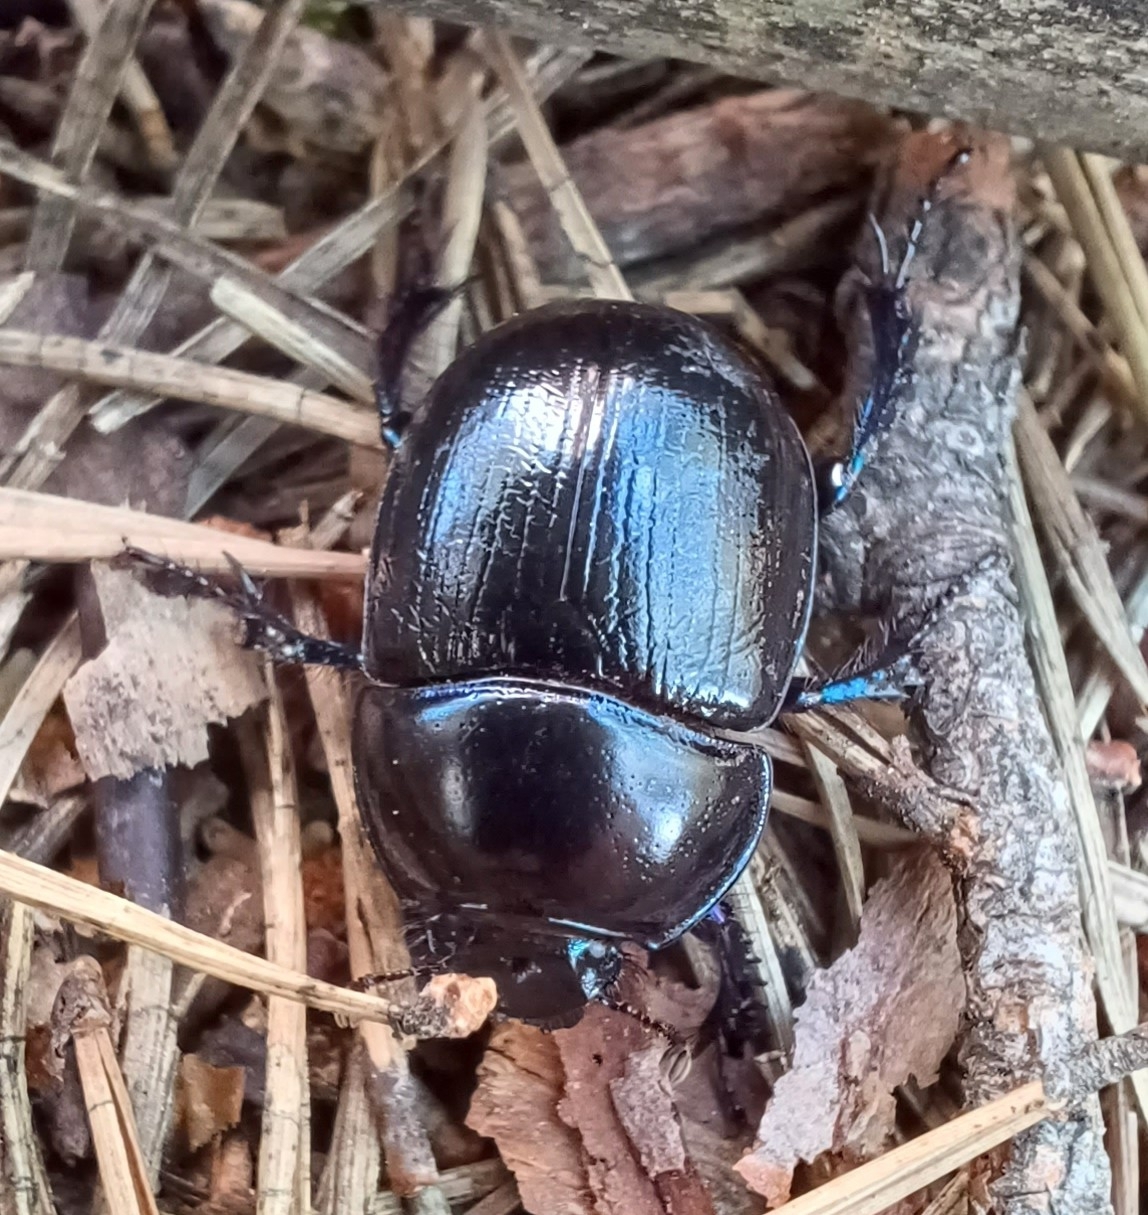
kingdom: Animalia
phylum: Arthropoda
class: Insecta
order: Coleoptera
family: Geotrupidae
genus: Anoplotrupes
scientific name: Anoplotrupes stercorosus
